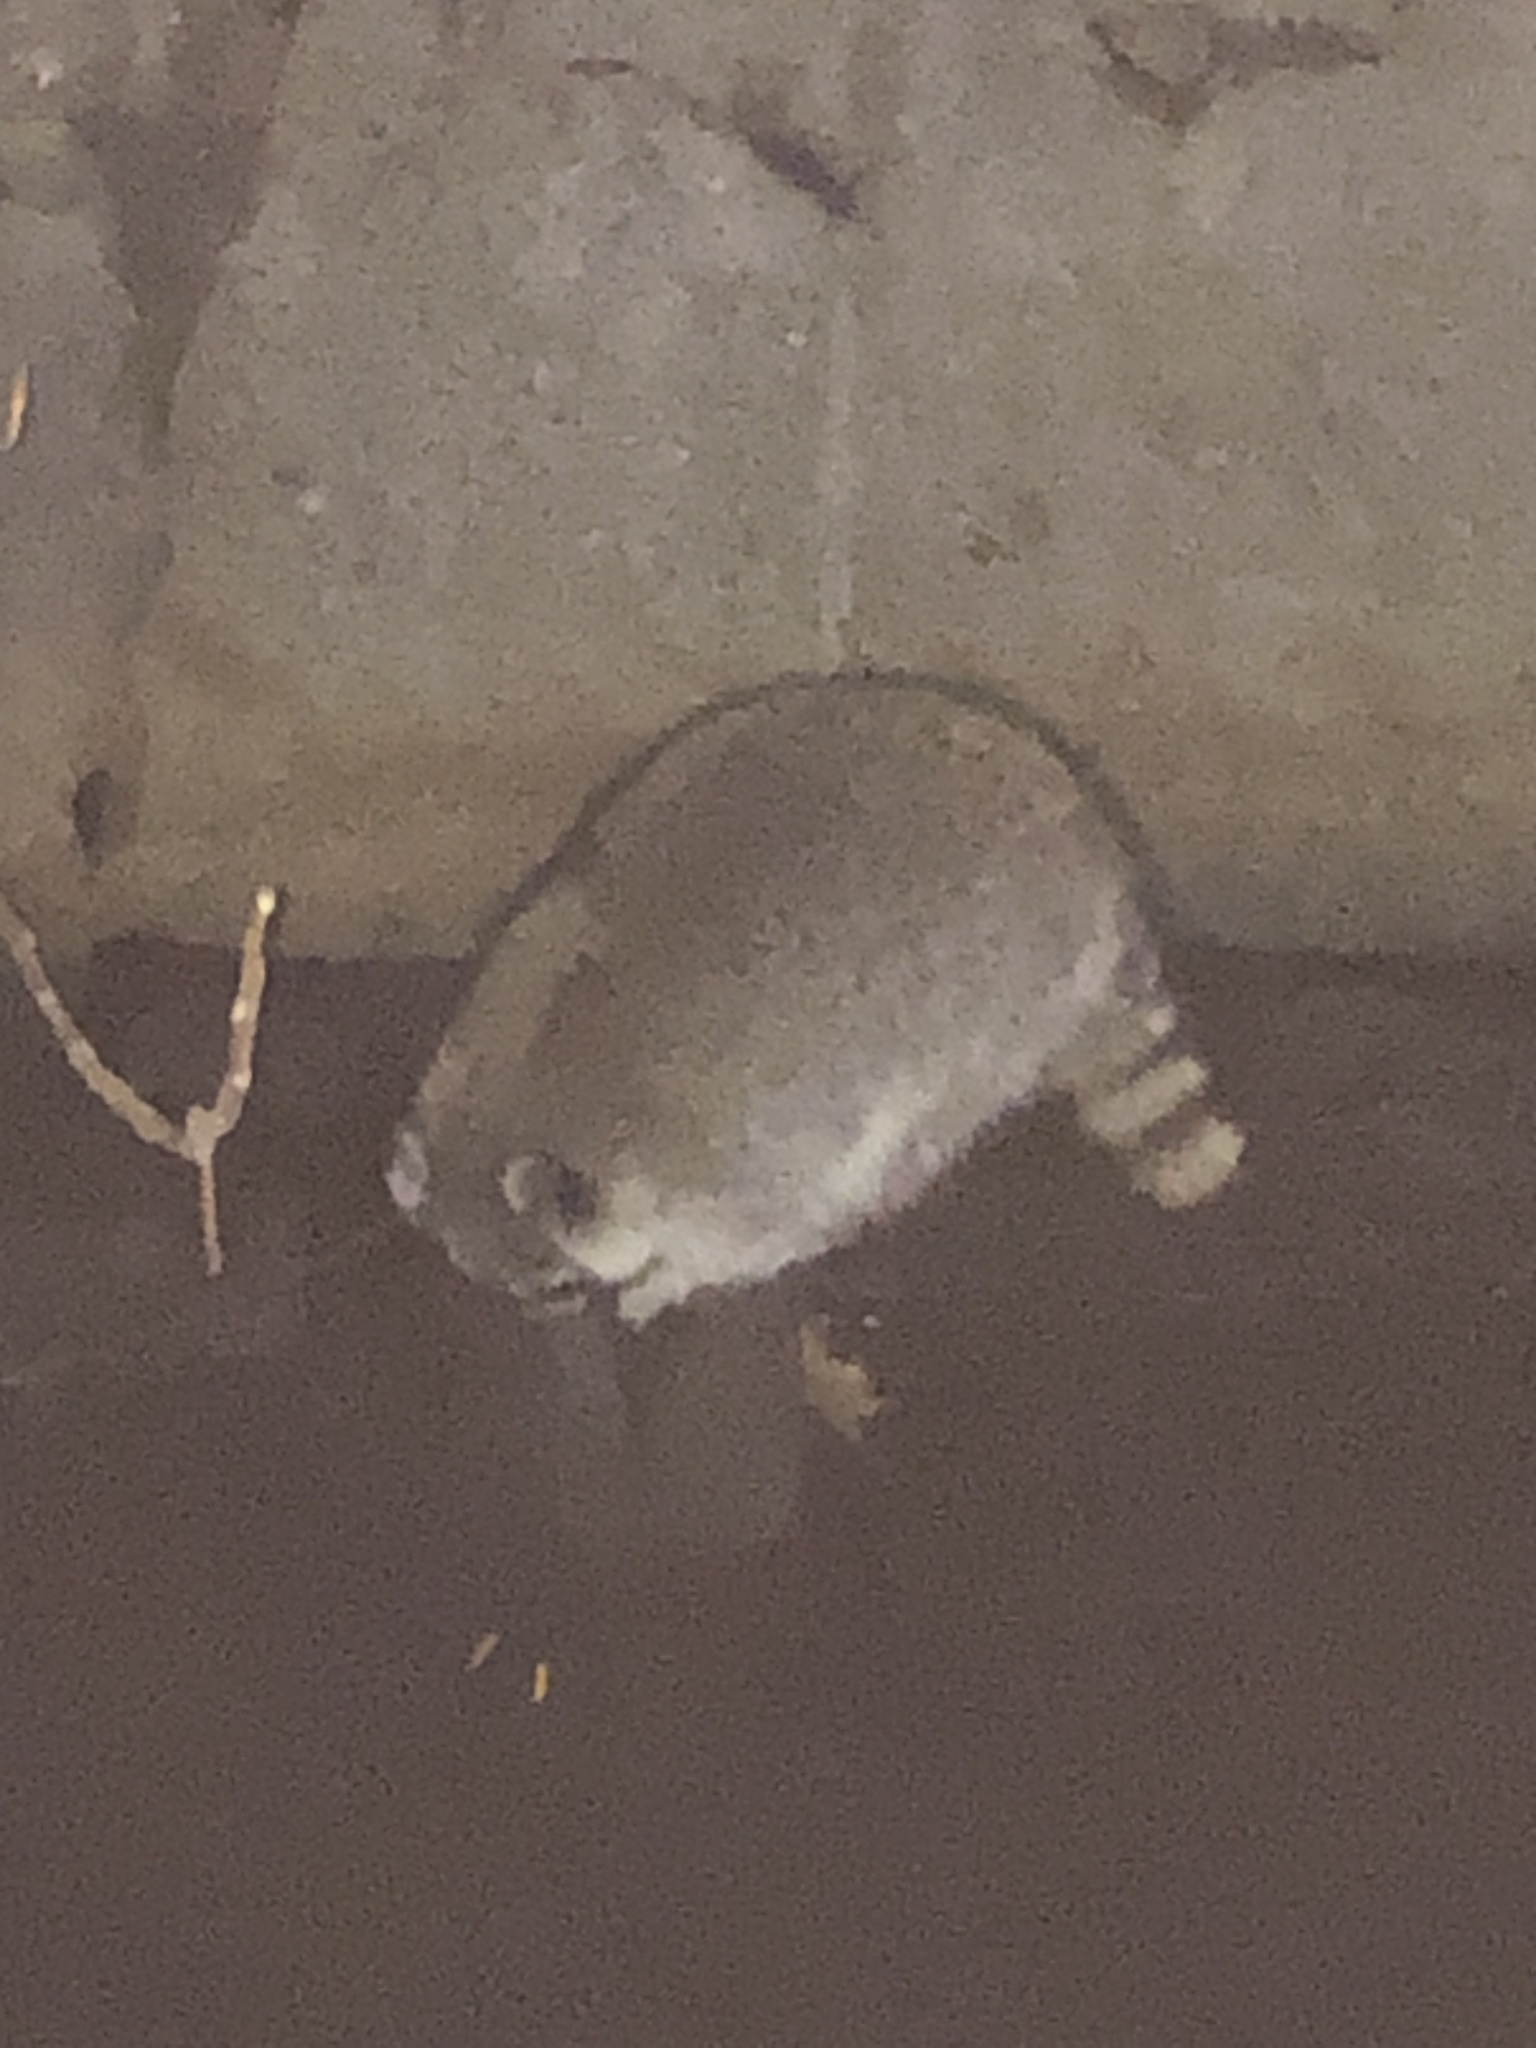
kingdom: Animalia
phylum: Chordata
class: Mammalia
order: Carnivora
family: Procyonidae
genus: Procyon
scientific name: Procyon lotor
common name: Raccoon
